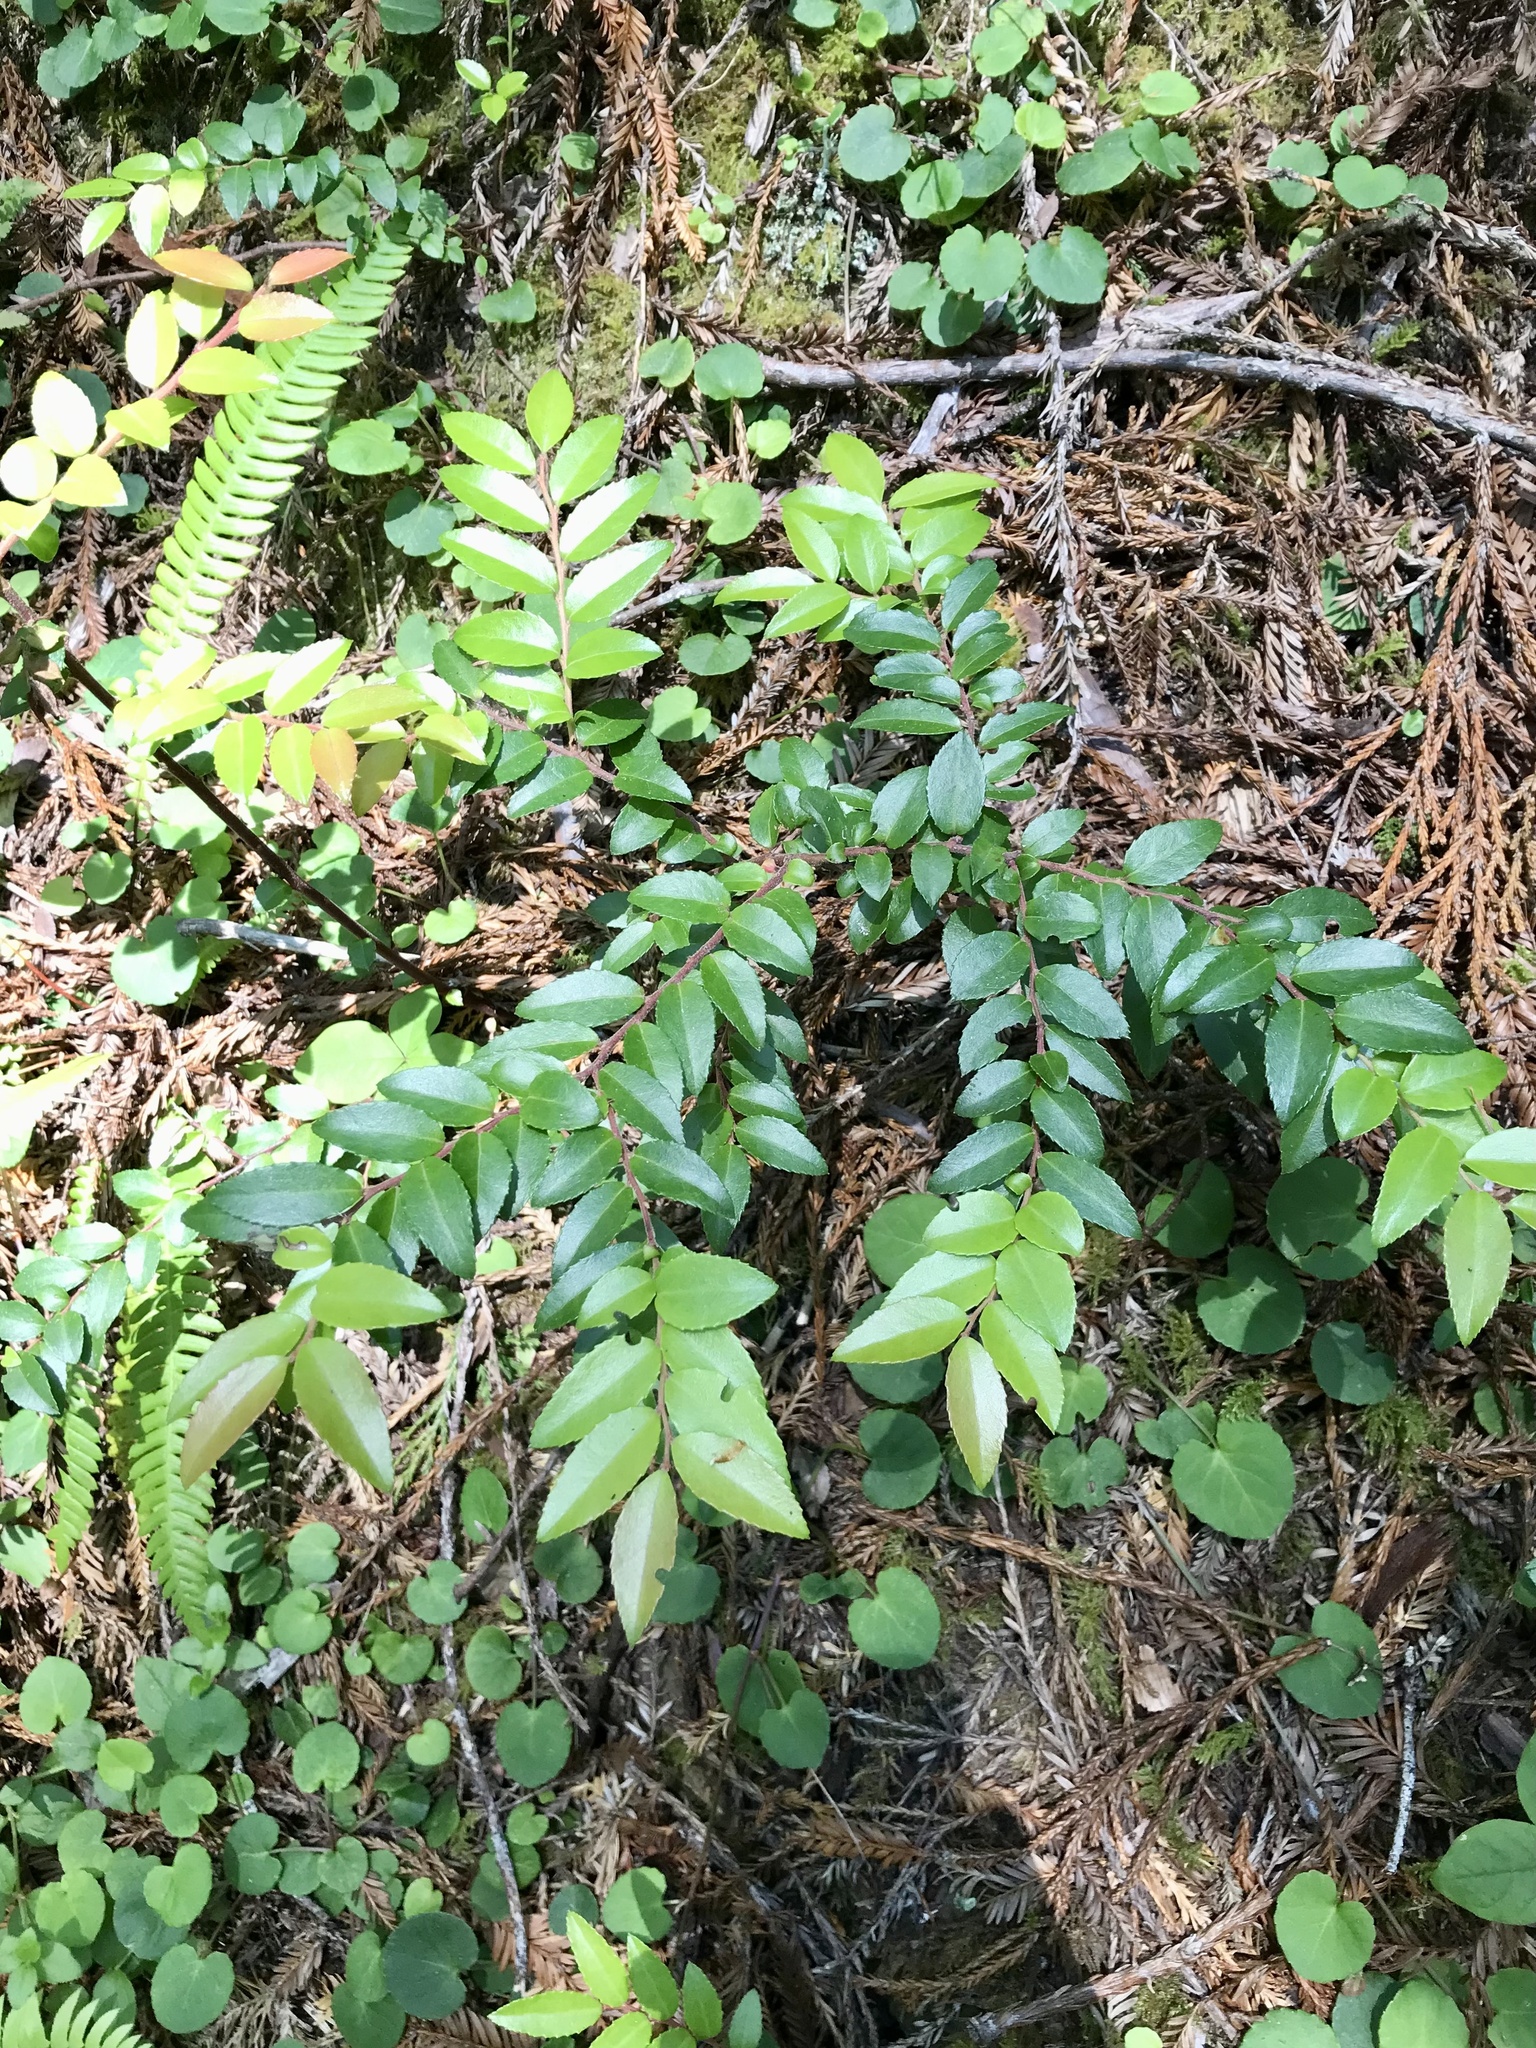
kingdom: Plantae
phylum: Tracheophyta
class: Magnoliopsida
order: Ericales
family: Ericaceae
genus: Vaccinium
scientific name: Vaccinium ovatum
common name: California-huckleberry
